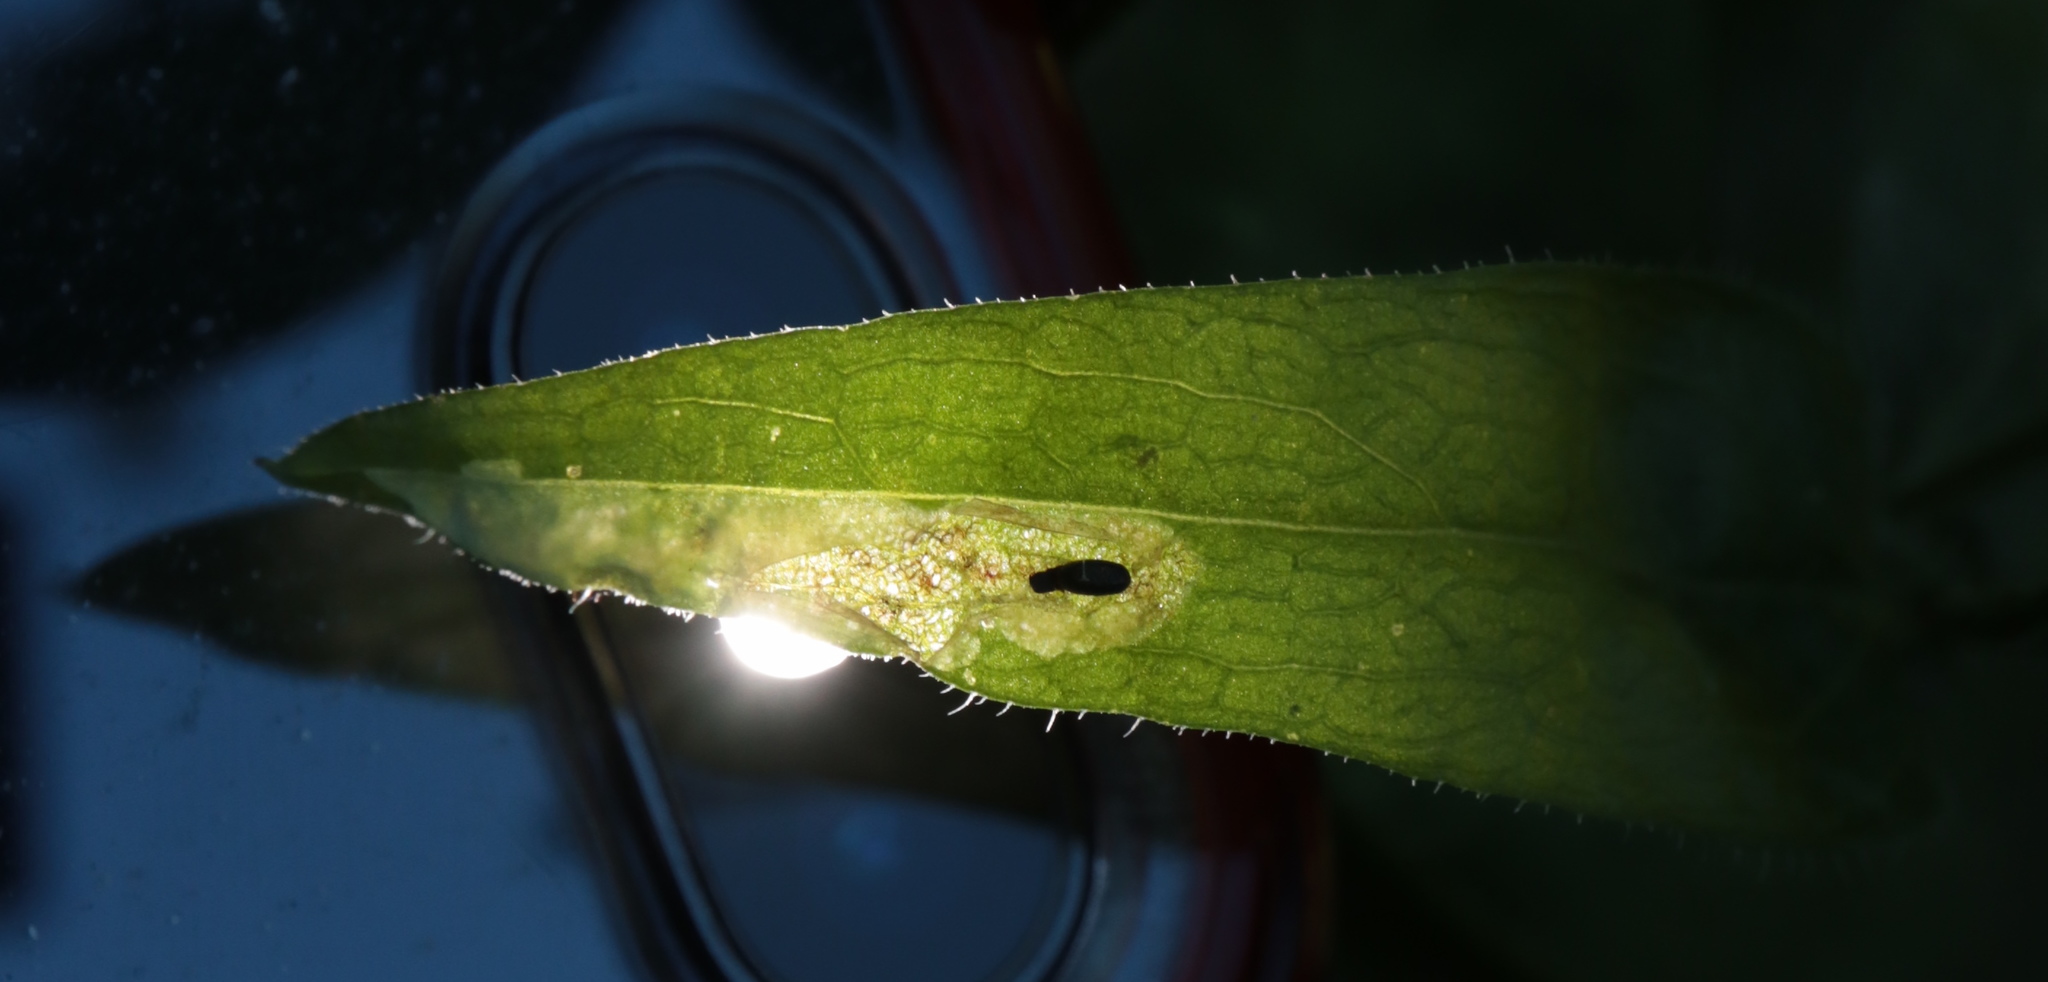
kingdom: Animalia
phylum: Arthropoda
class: Insecta
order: Diptera
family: Agromyzidae
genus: Calycomyza
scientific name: Calycomyza humeralis
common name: Aster leafminer
